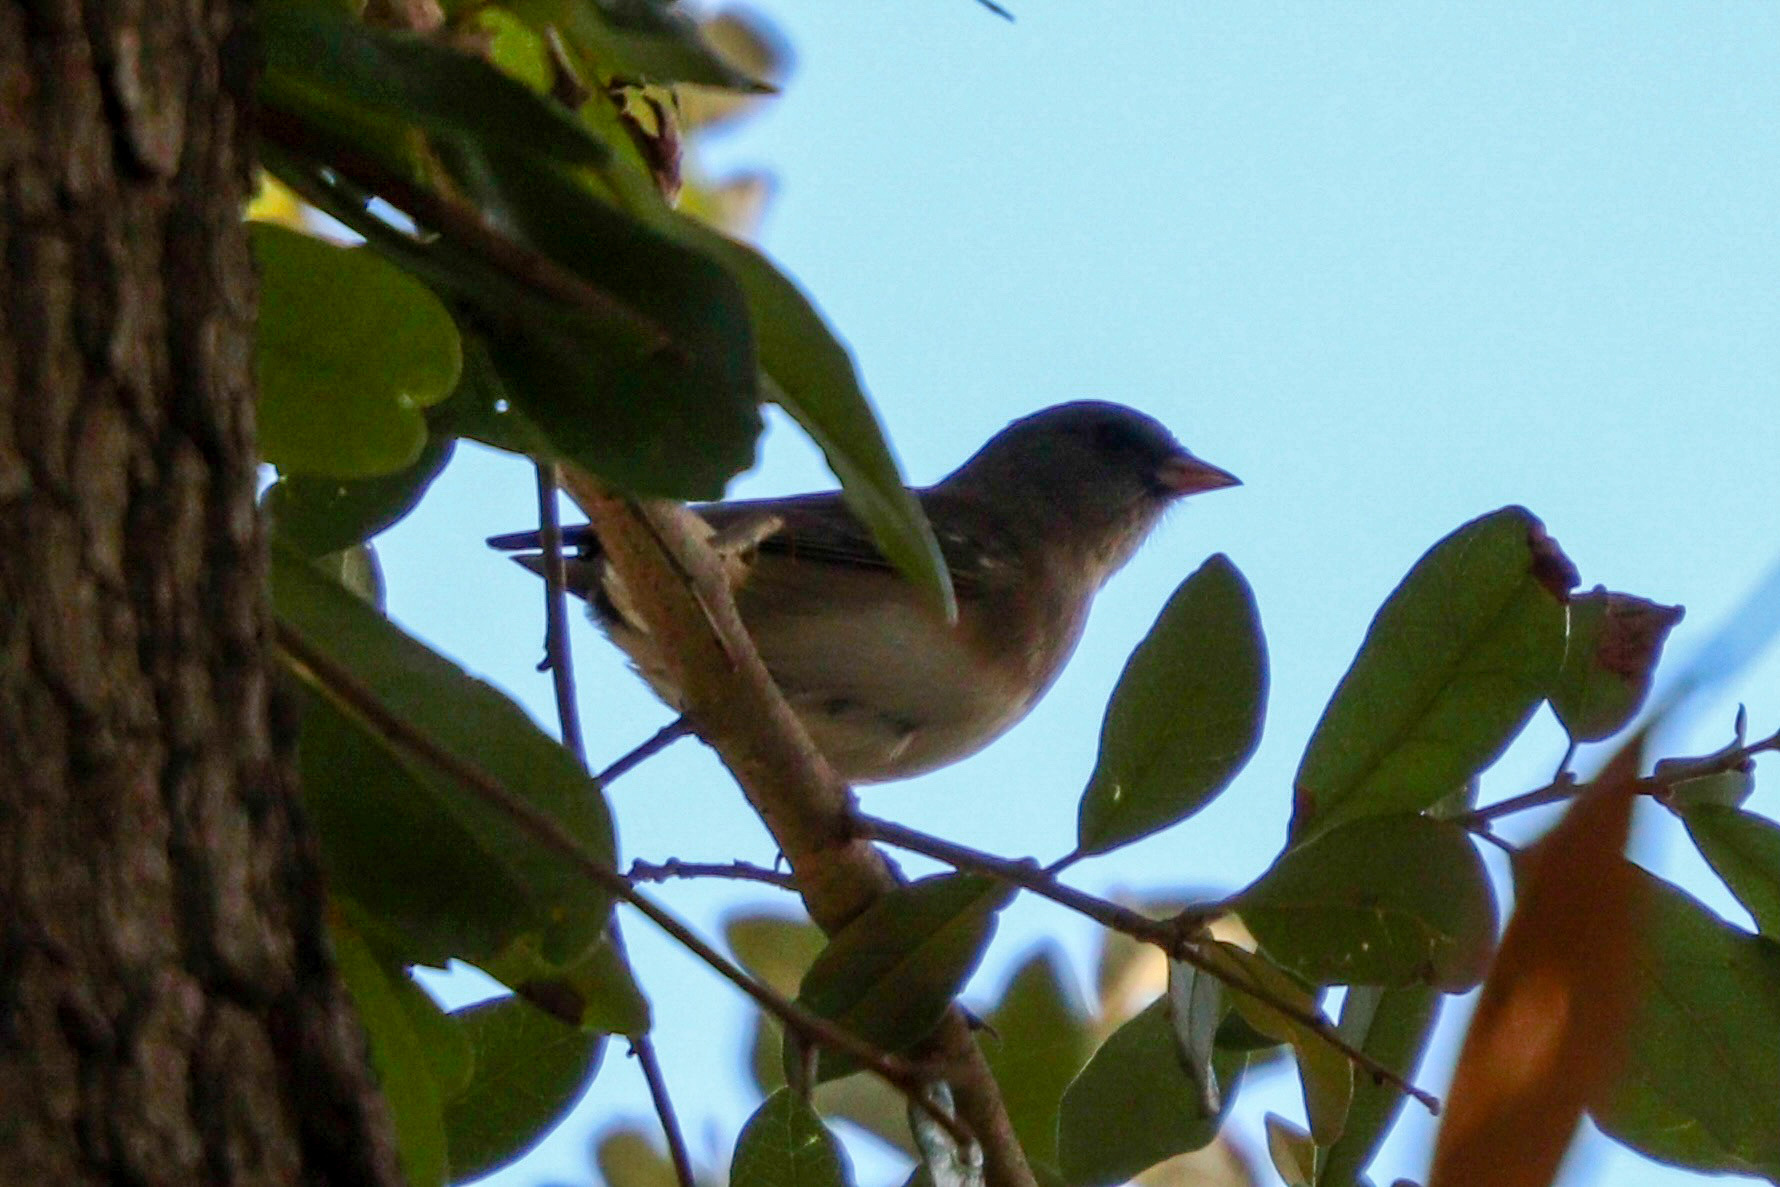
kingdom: Animalia
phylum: Chordata
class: Aves
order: Passeriformes
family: Passerellidae
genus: Junco
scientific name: Junco hyemalis
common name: Dark-eyed junco
